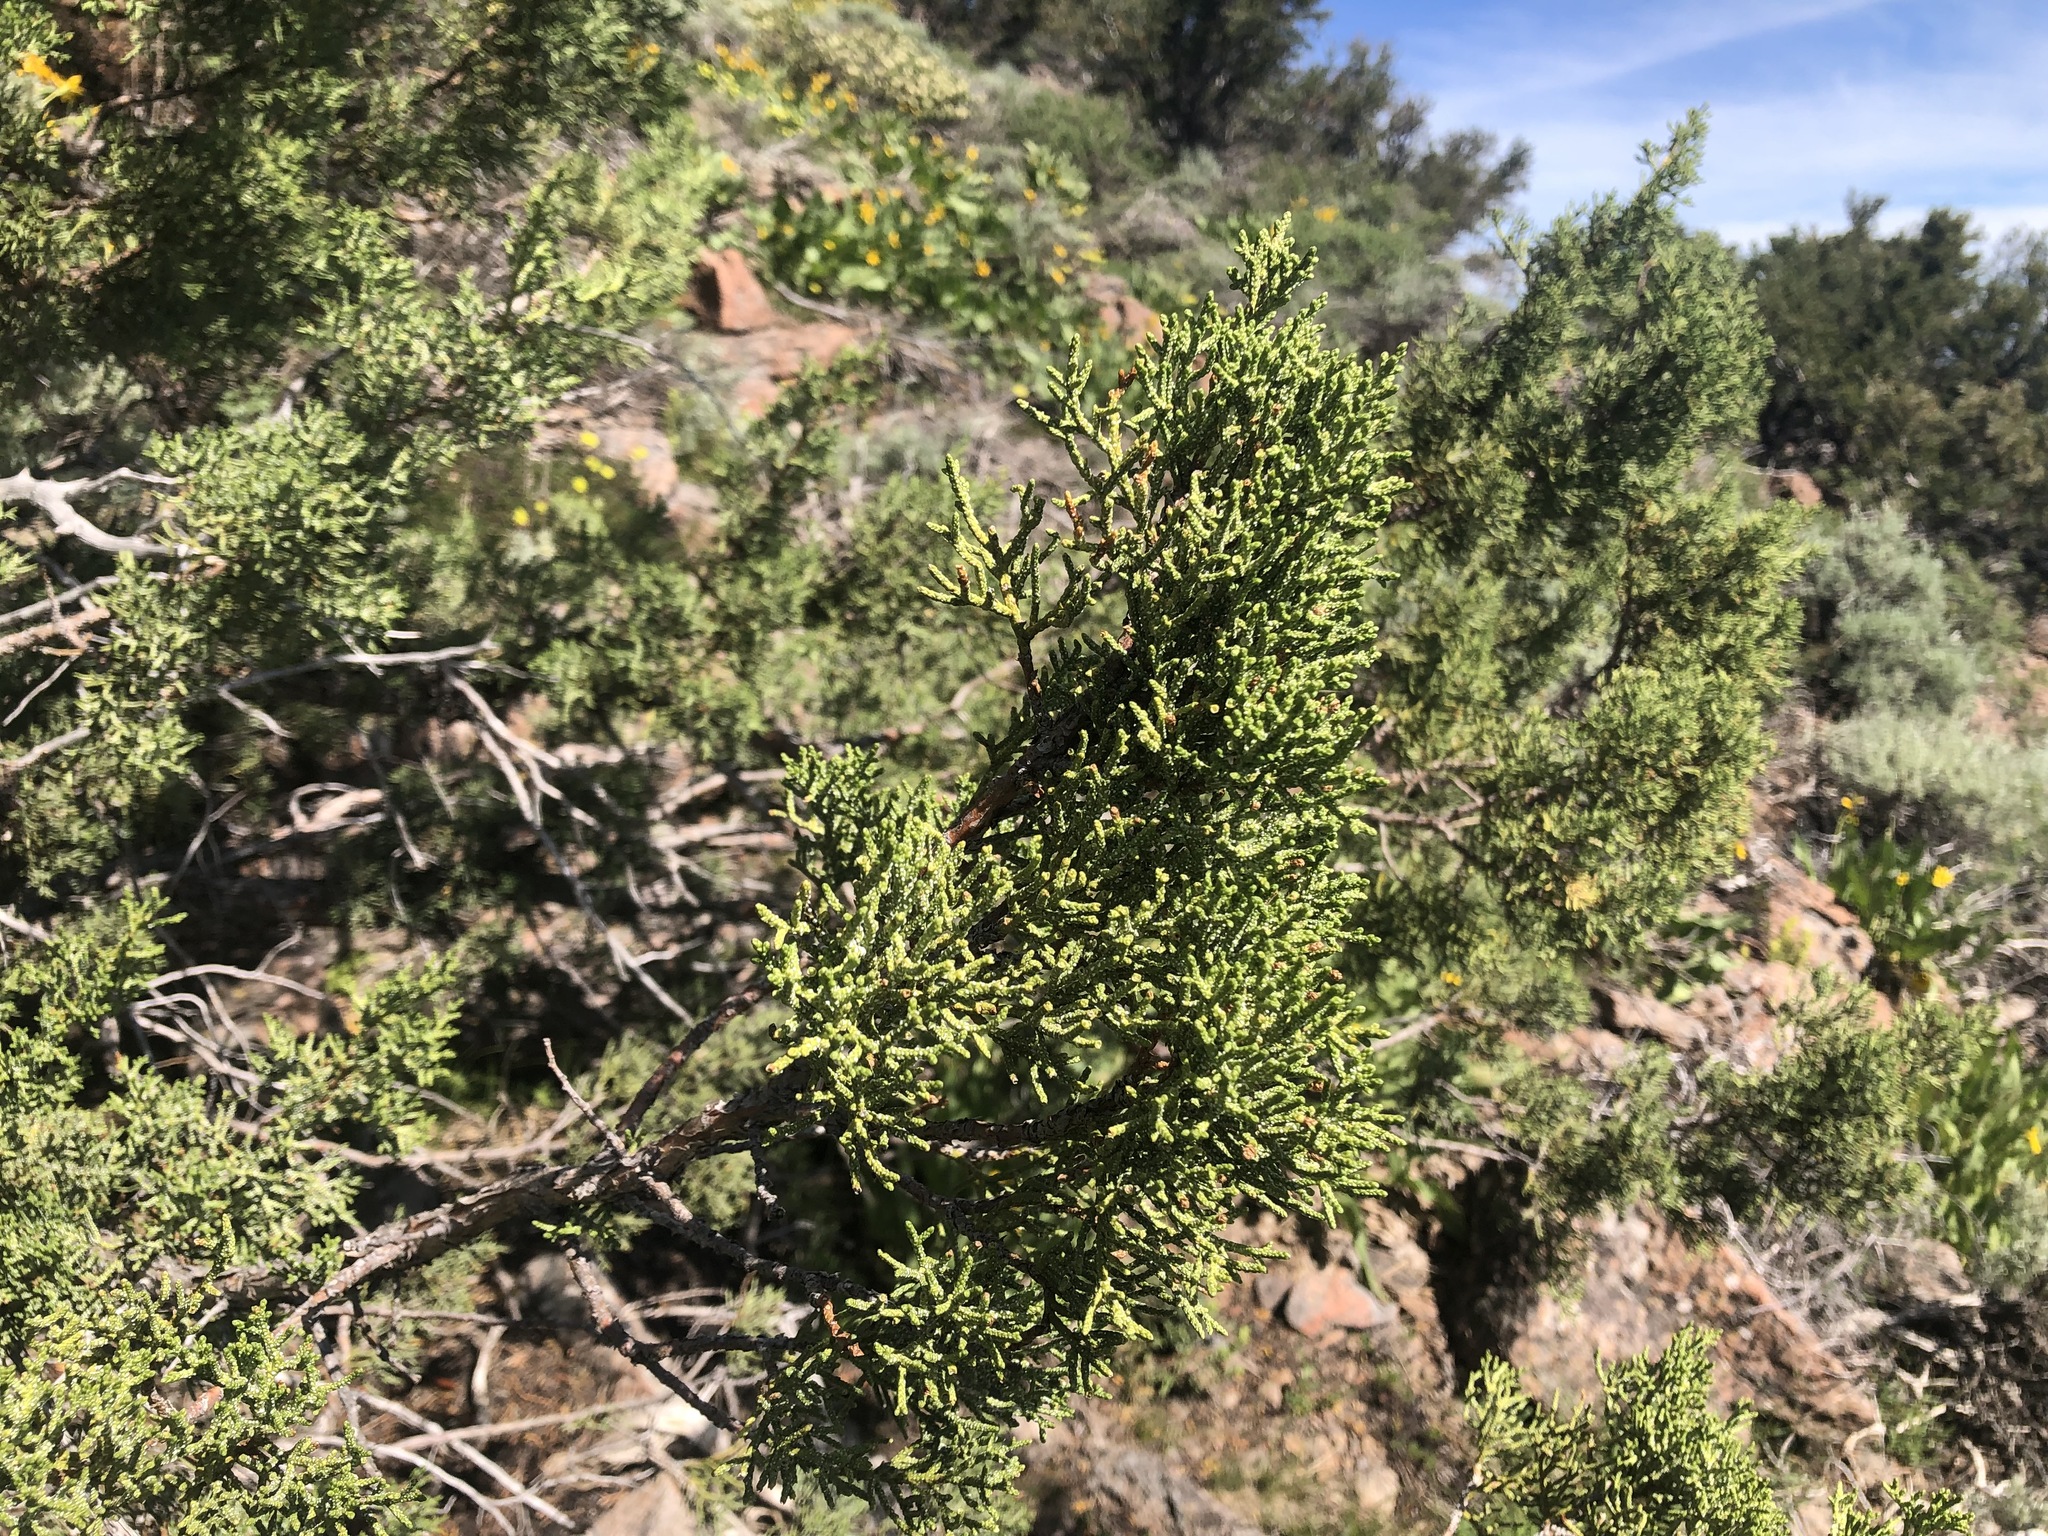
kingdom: Plantae
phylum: Tracheophyta
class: Pinopsida
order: Pinales
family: Cupressaceae
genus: Juniperus
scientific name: Juniperus occidentalis
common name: Western juniper
